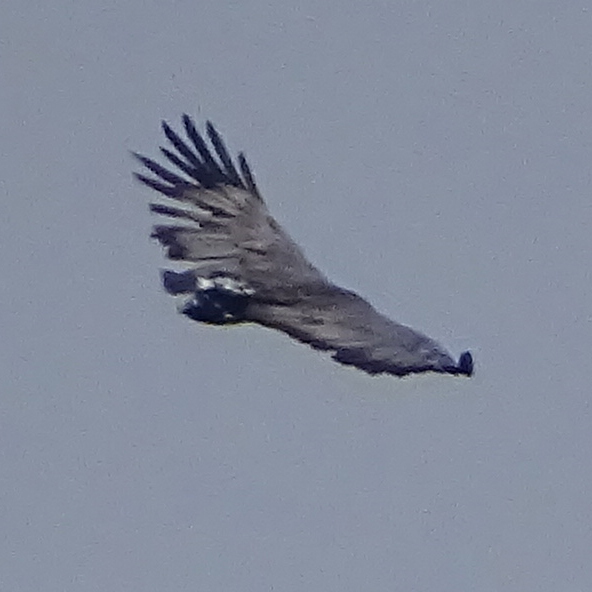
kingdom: Animalia
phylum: Chordata
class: Aves
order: Accipitriformes
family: Accipitridae
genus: Harpyhaliaetus
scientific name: Harpyhaliaetus coronatus
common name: Crowned solitary eagle
